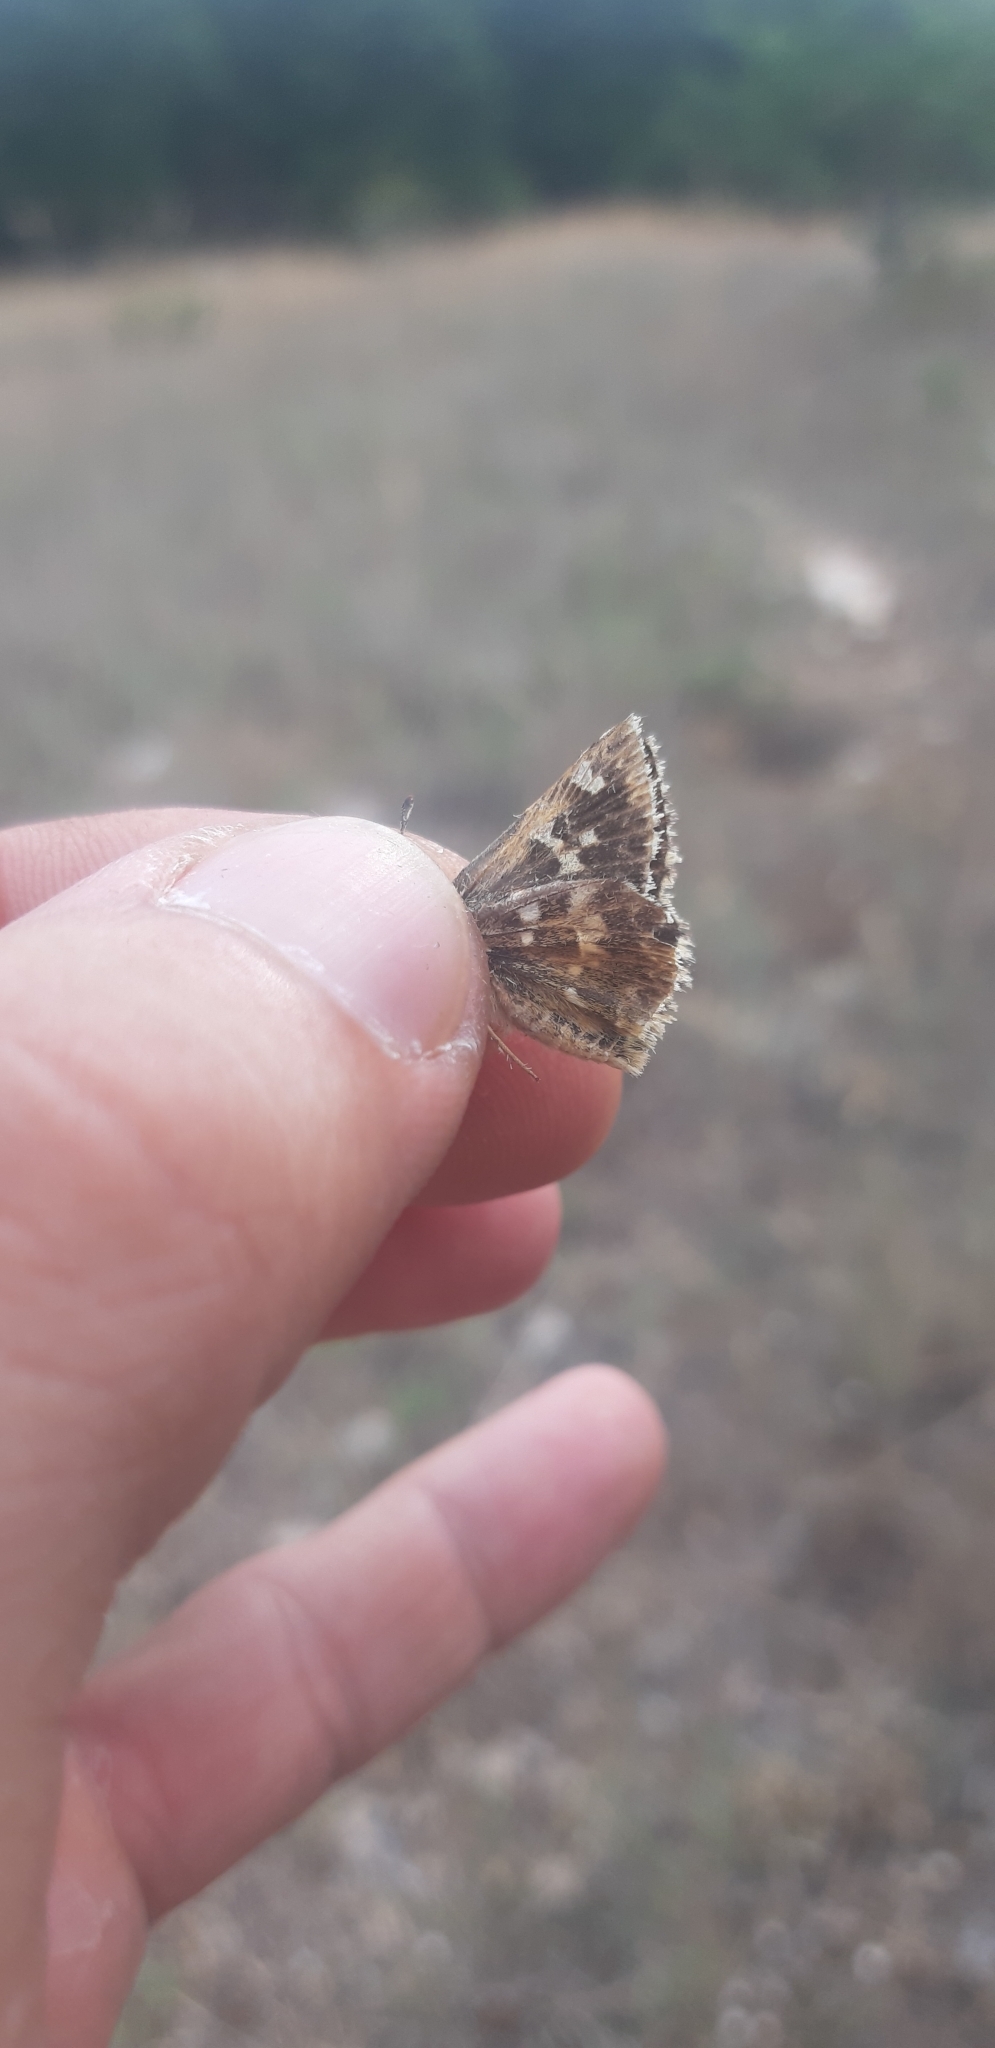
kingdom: Animalia
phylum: Arthropoda
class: Insecta
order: Lepidoptera
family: Hesperiidae
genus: Syrichtus
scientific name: Syrichtus proto
